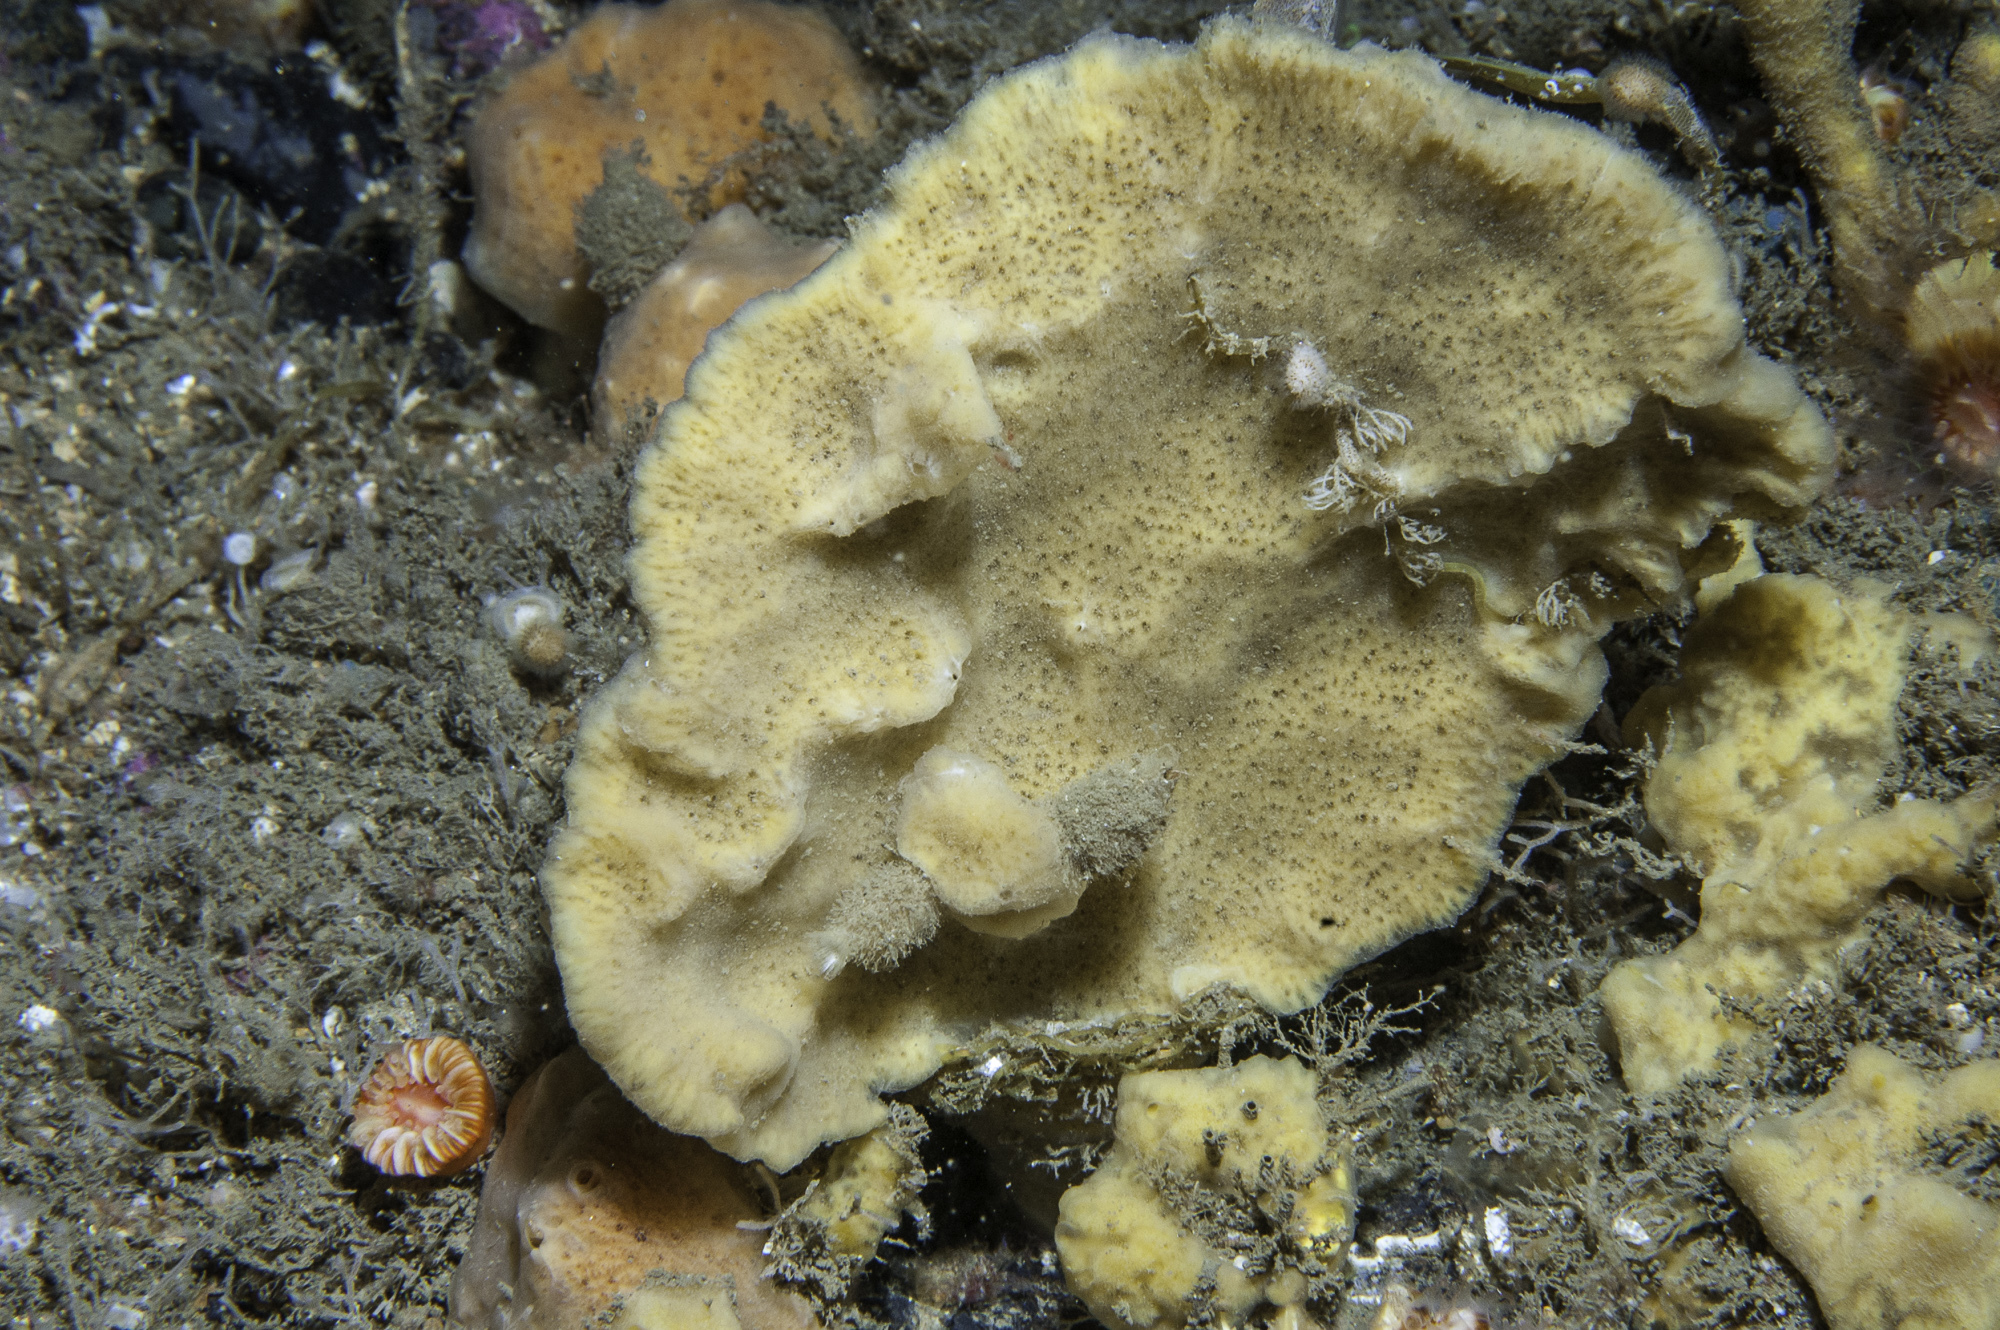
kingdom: Animalia
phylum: Porifera
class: Demospongiae
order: Poecilosclerida
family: Microcionidae
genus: Clathria
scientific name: Clathria barleei
